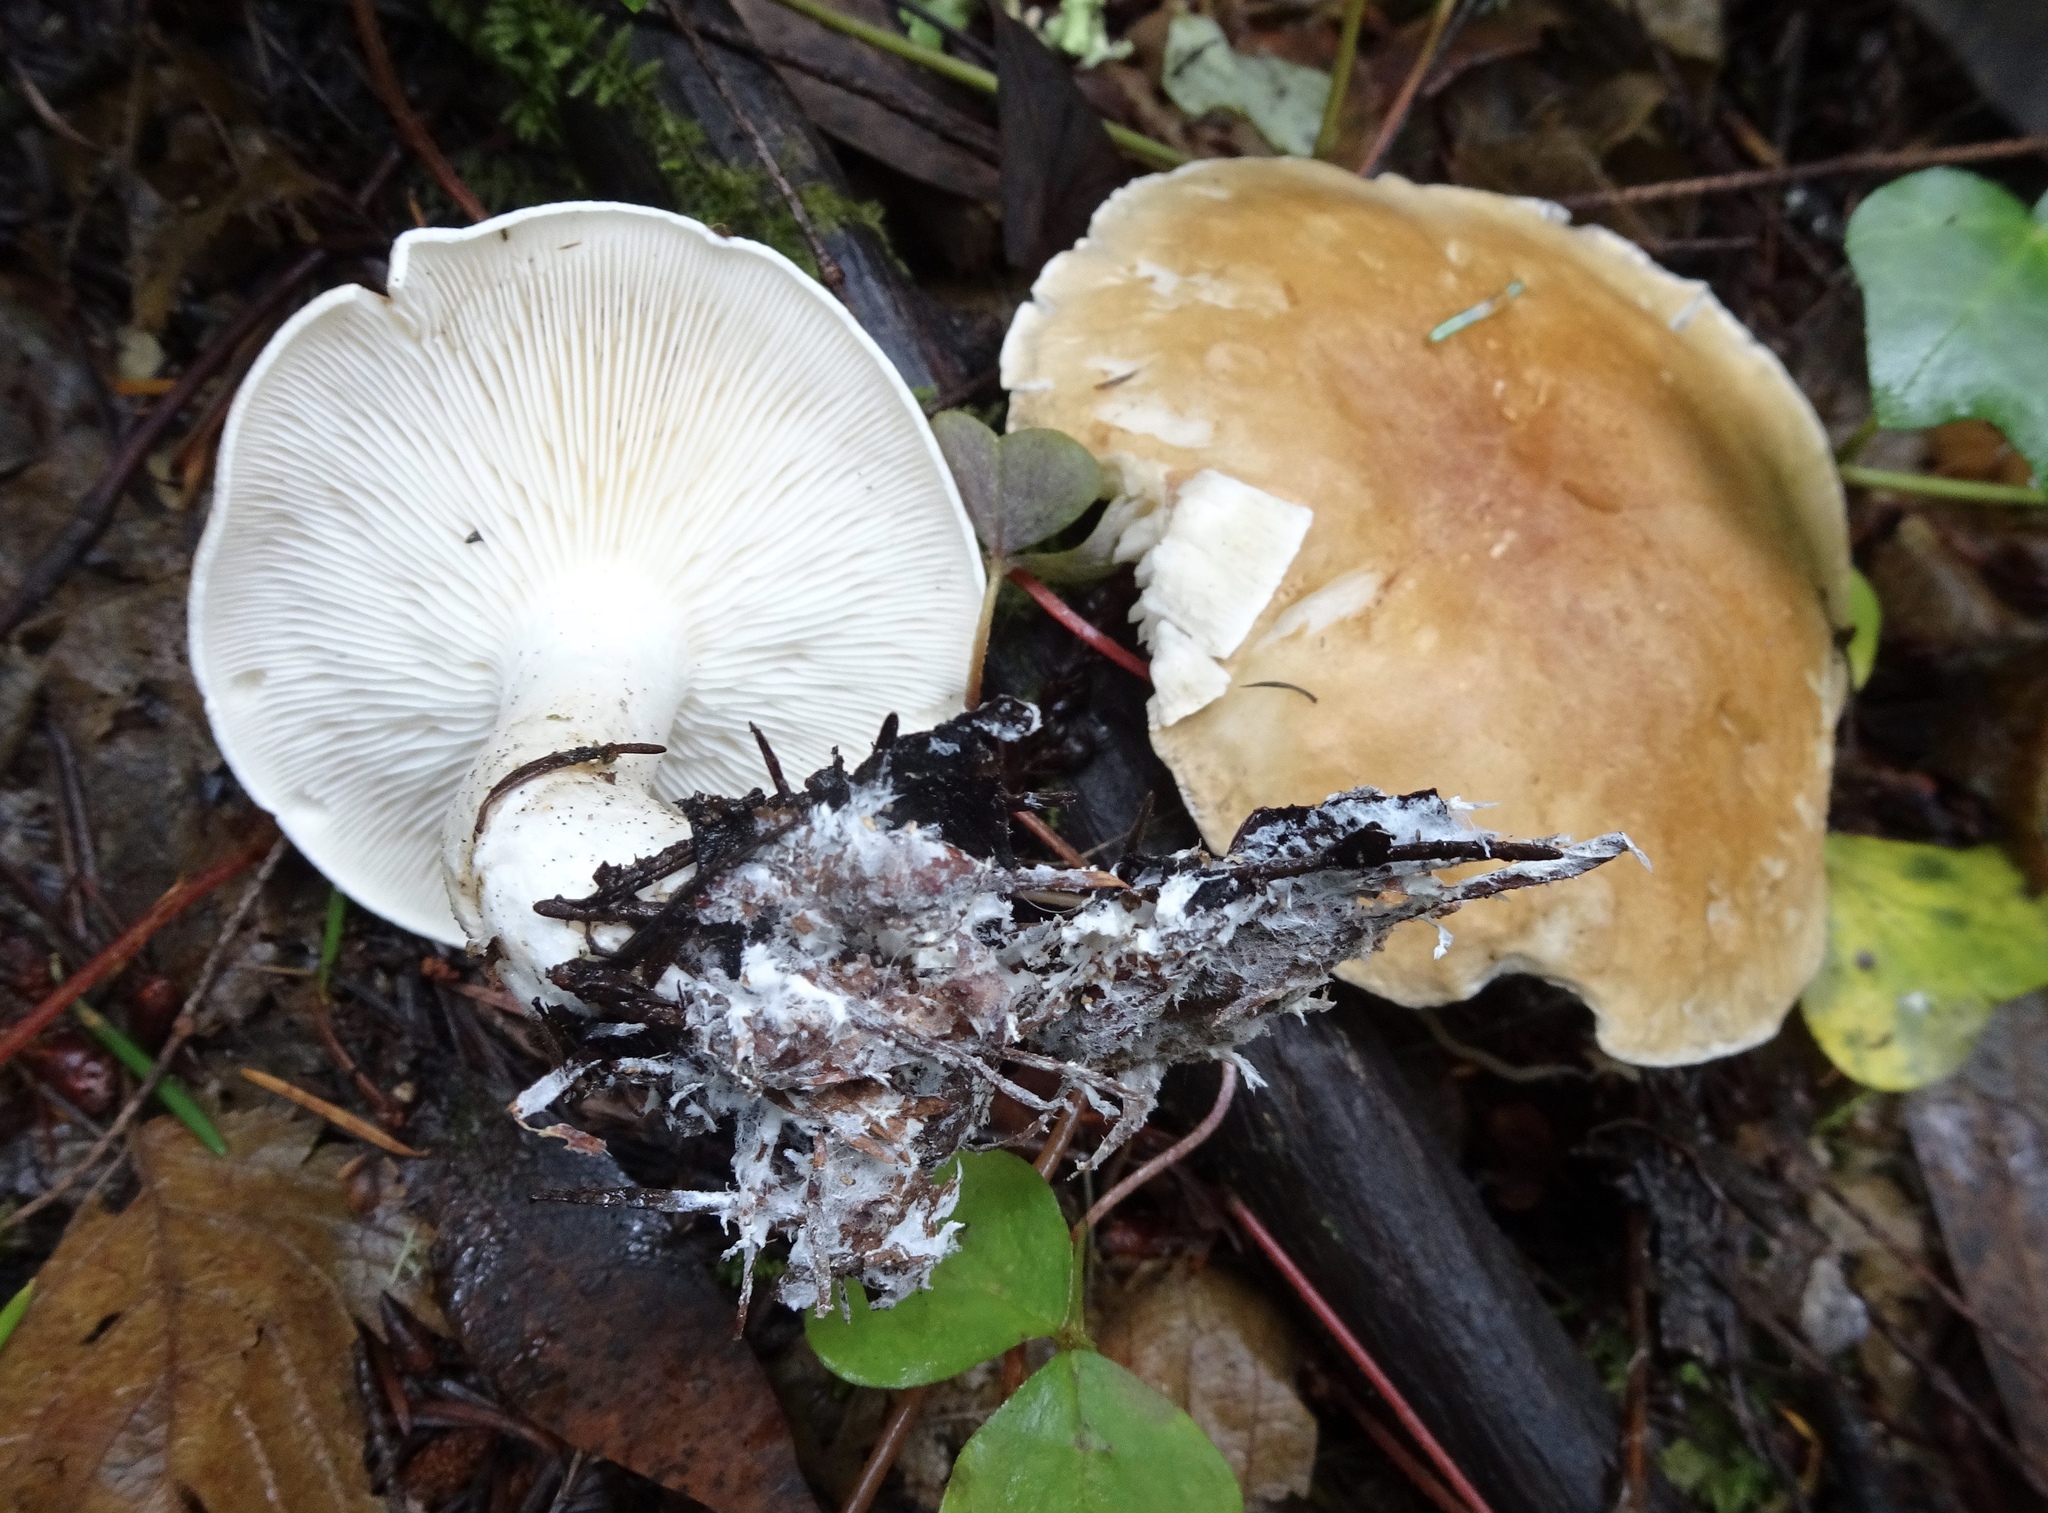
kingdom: Fungi
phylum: Basidiomycota
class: Agaricomycetes
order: Agaricales
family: Tricholomataceae
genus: Leucopaxillus
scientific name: Leucopaxillus gentianeus
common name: Bitter funnel
